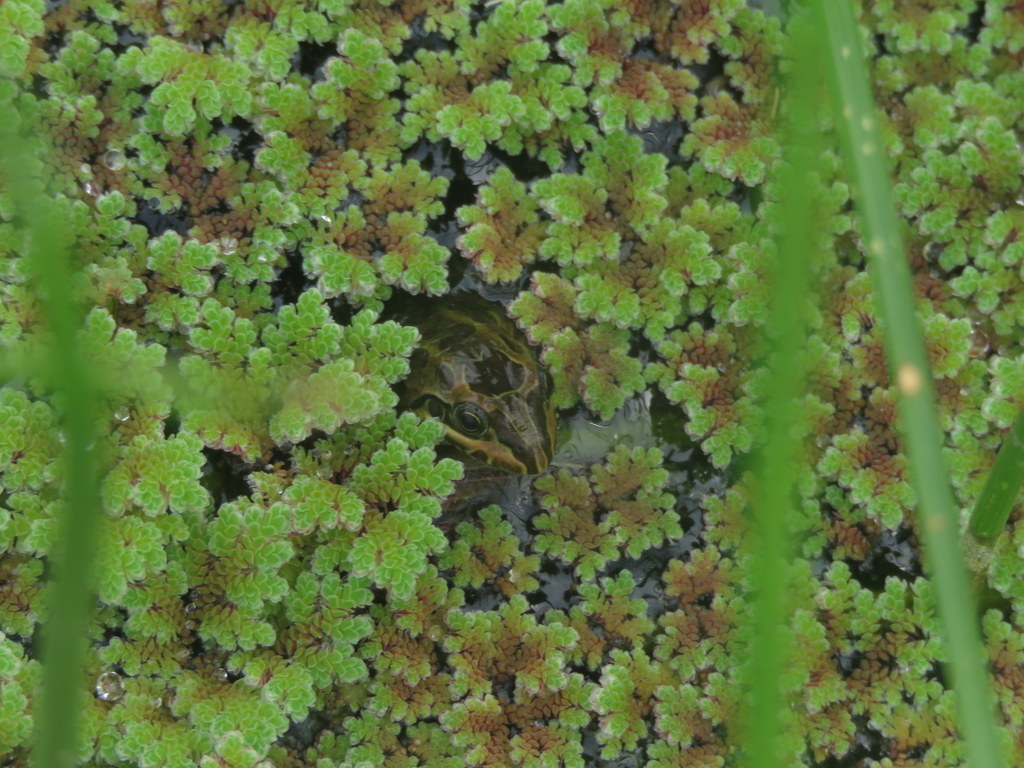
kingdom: Animalia
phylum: Chordata
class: Amphibia
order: Anura
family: Leptodactylidae
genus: Leptodactylus
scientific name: Leptodactylus luctator
